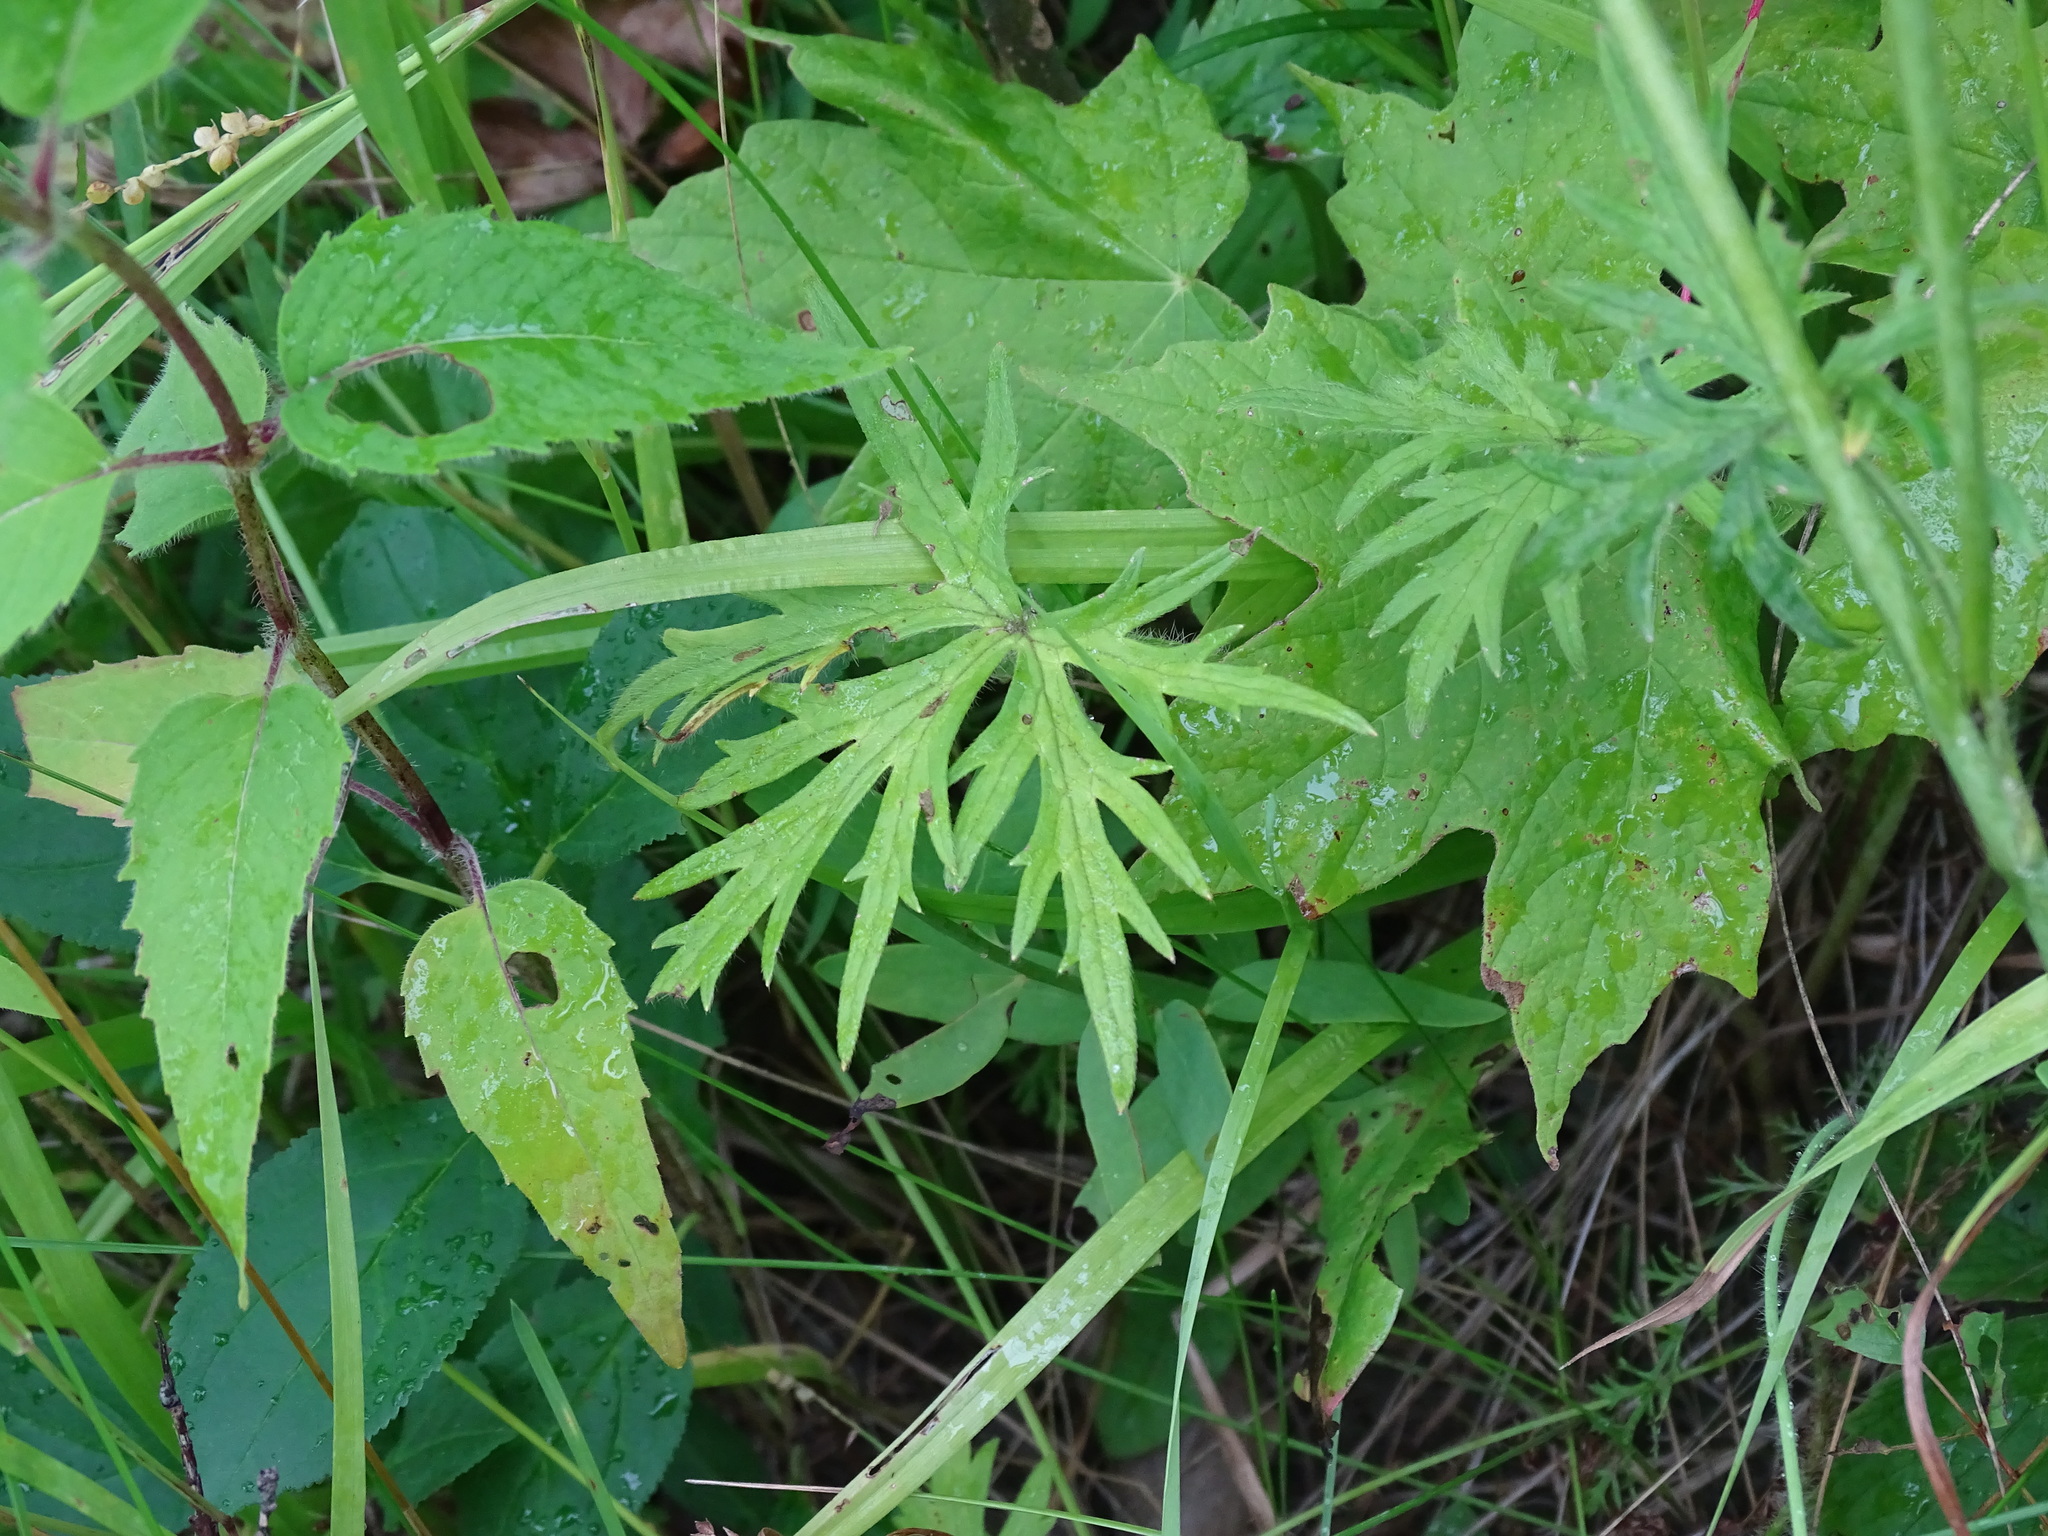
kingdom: Plantae
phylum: Tracheophyta
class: Magnoliopsida
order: Ranunculales
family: Ranunculaceae
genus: Ranunculus
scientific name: Ranunculus acris
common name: Meadow buttercup
